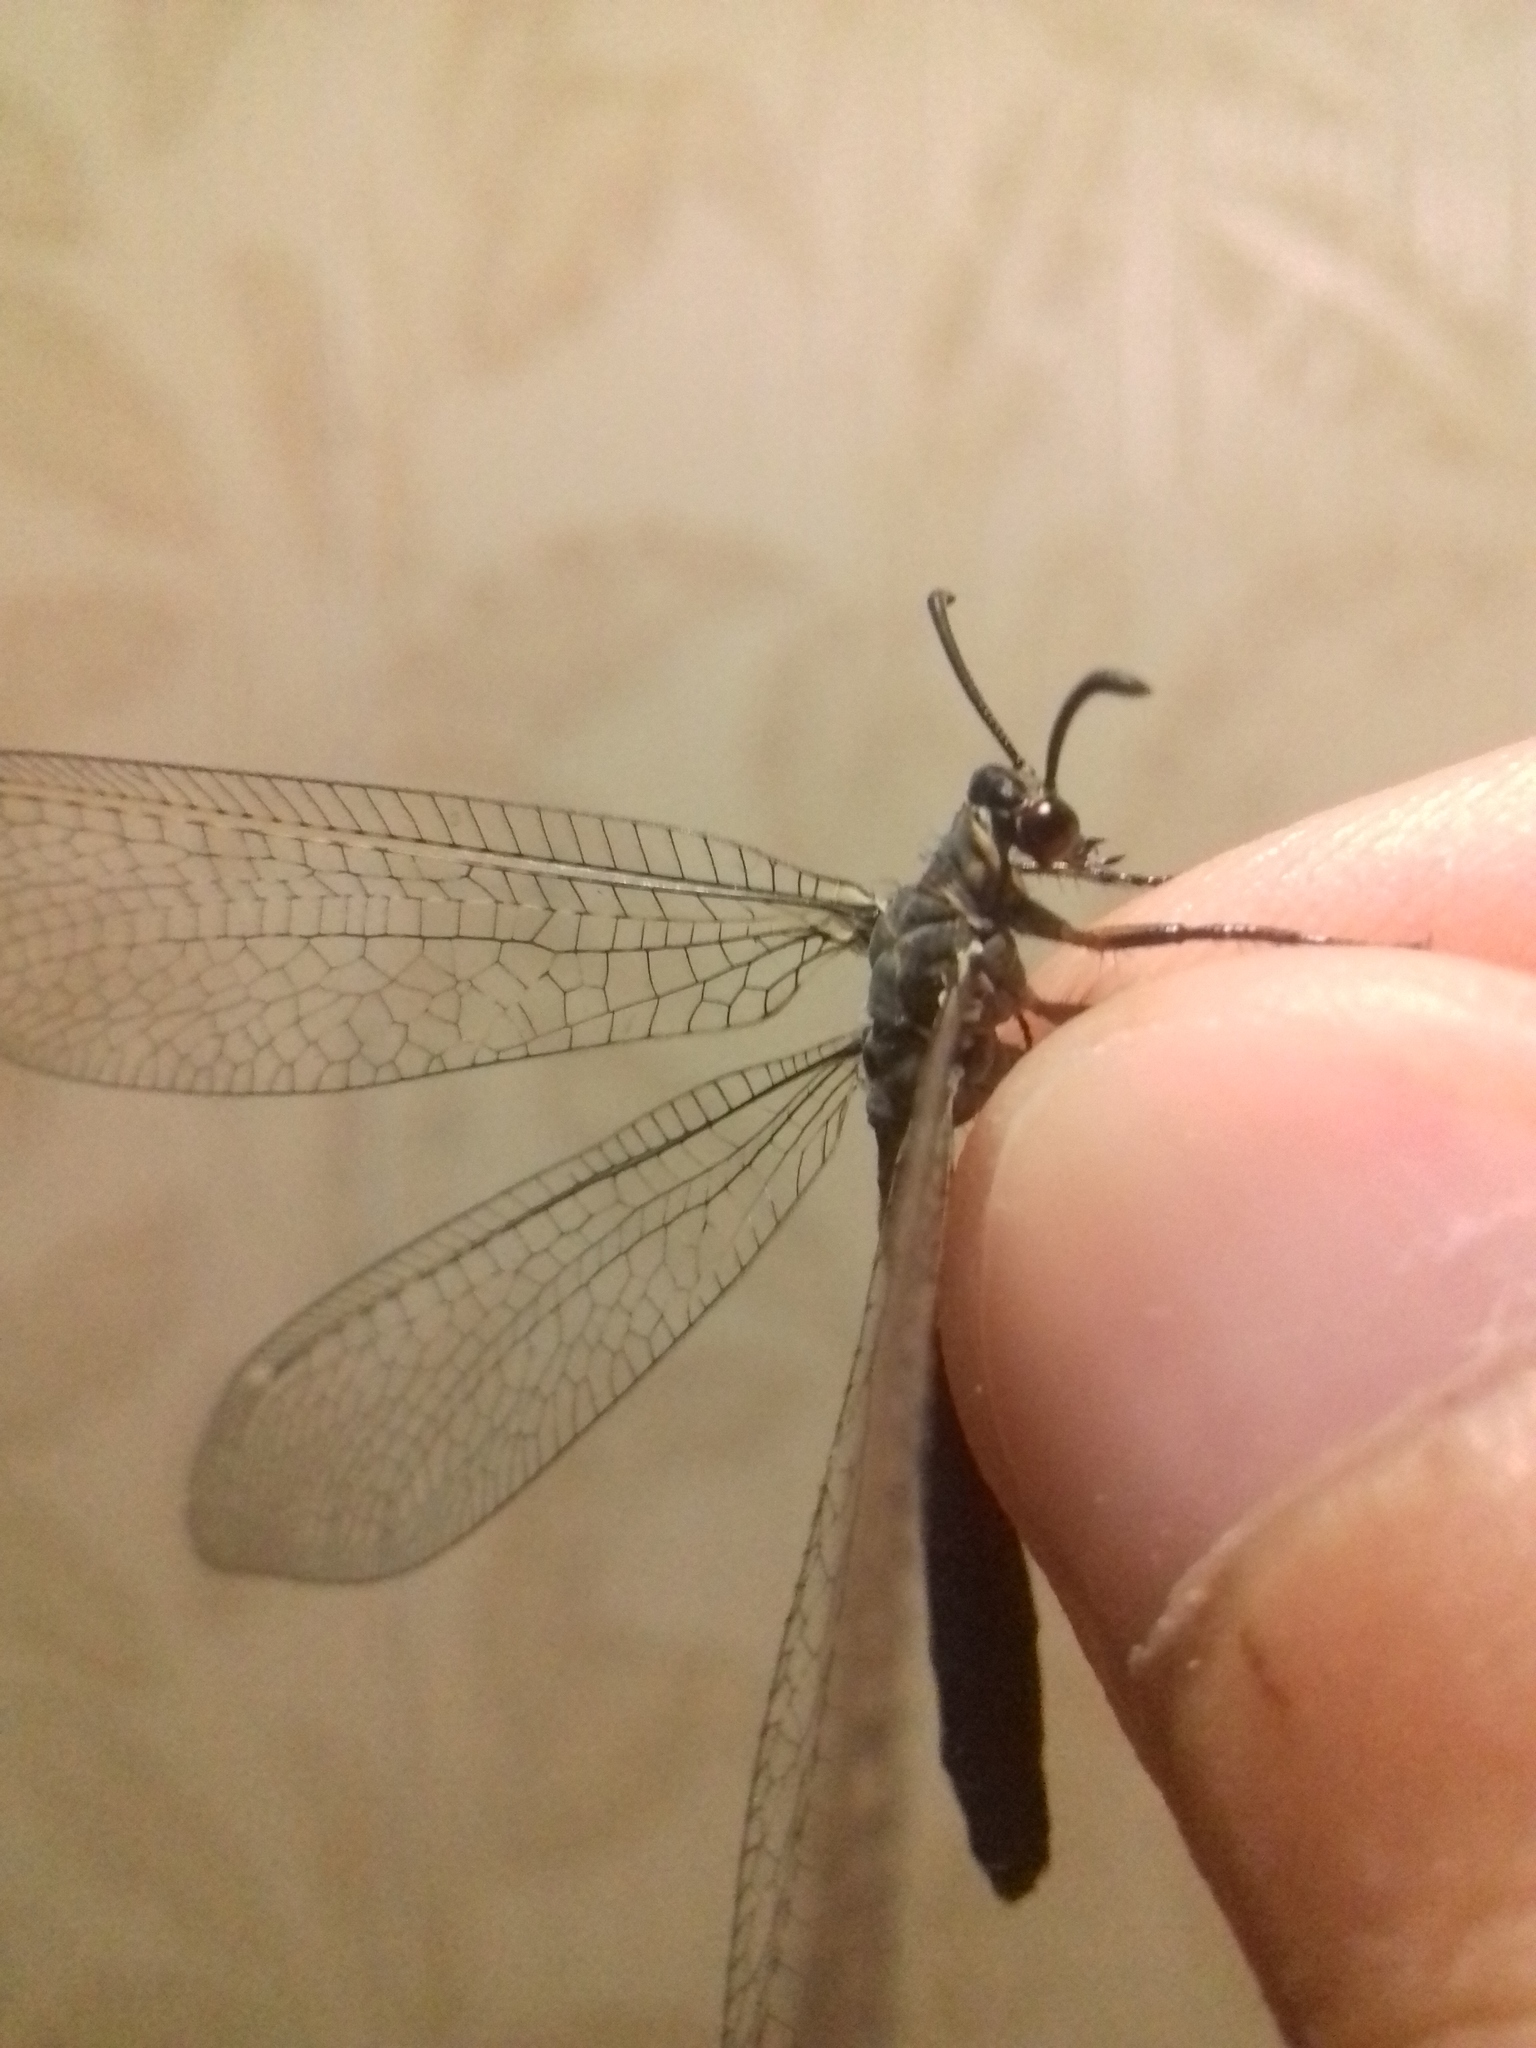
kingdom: Animalia
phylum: Arthropoda
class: Insecta
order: Neuroptera
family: Myrmeleontidae
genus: Myrmeleon
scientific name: Myrmeleon formicarius
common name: Ant-lion
